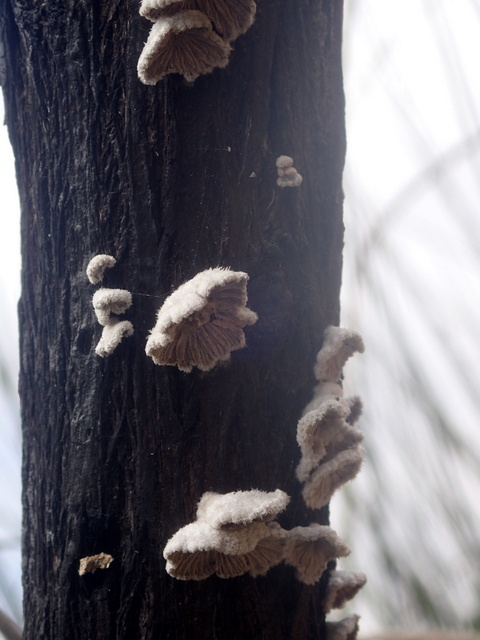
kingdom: Fungi
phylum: Basidiomycota
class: Agaricomycetes
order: Agaricales
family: Schizophyllaceae
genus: Schizophyllum
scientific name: Schizophyllum commune
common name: Common porecrust
